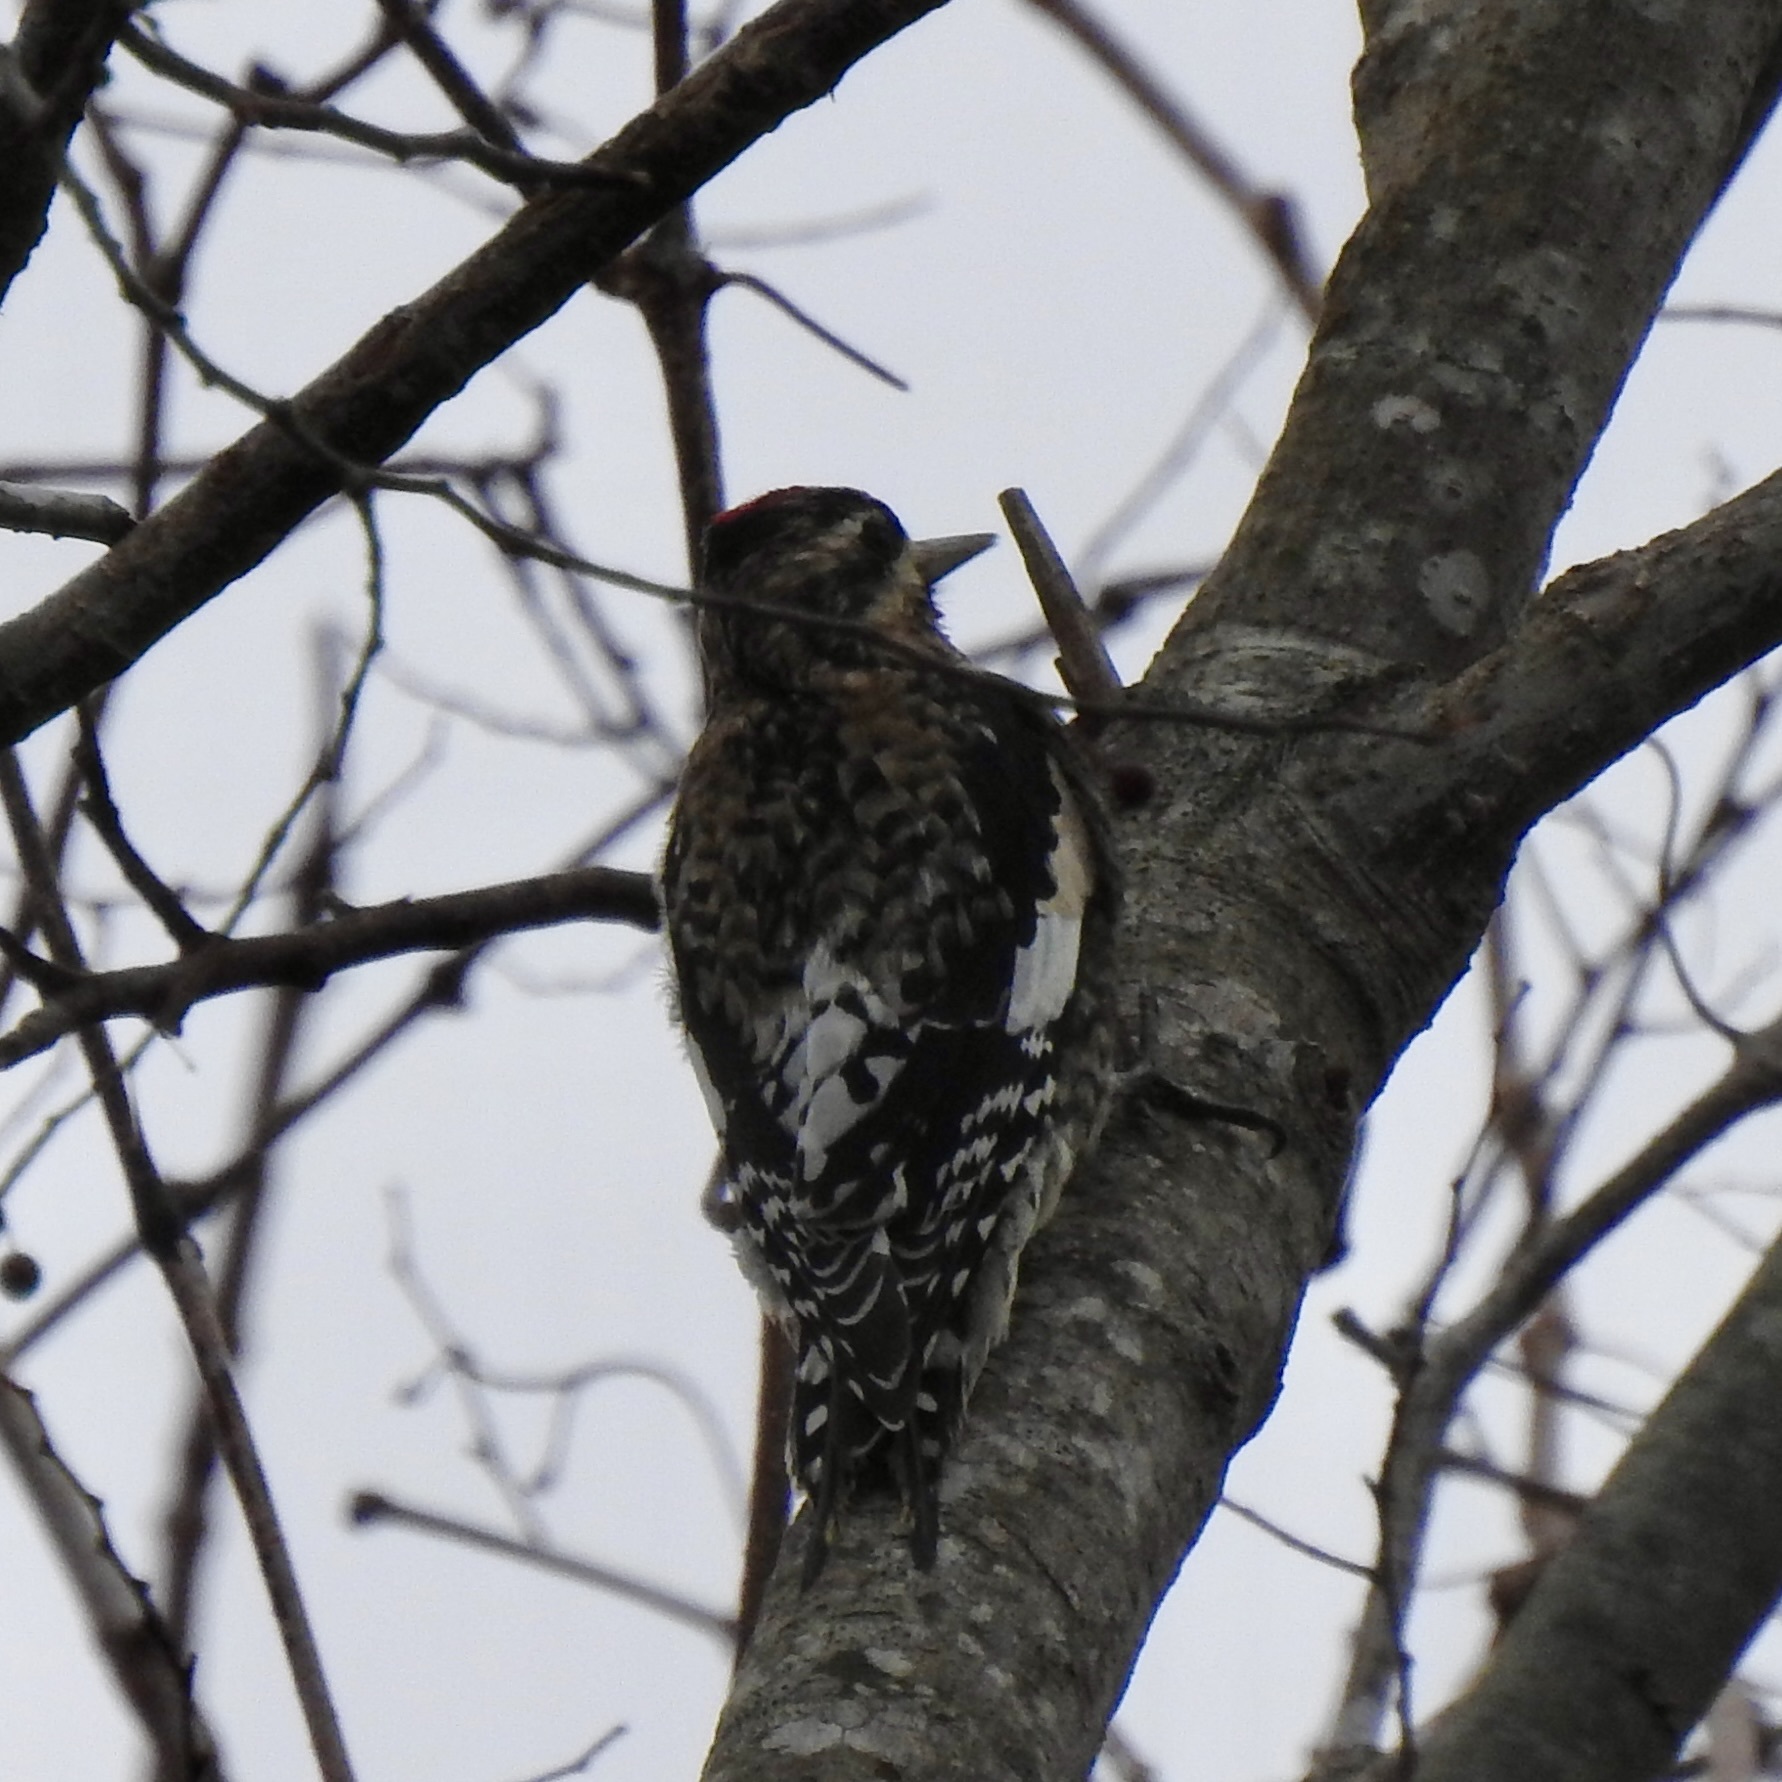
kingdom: Animalia
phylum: Chordata
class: Aves
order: Piciformes
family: Picidae
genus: Sphyrapicus
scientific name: Sphyrapicus varius
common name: Yellow-bellied sapsucker
